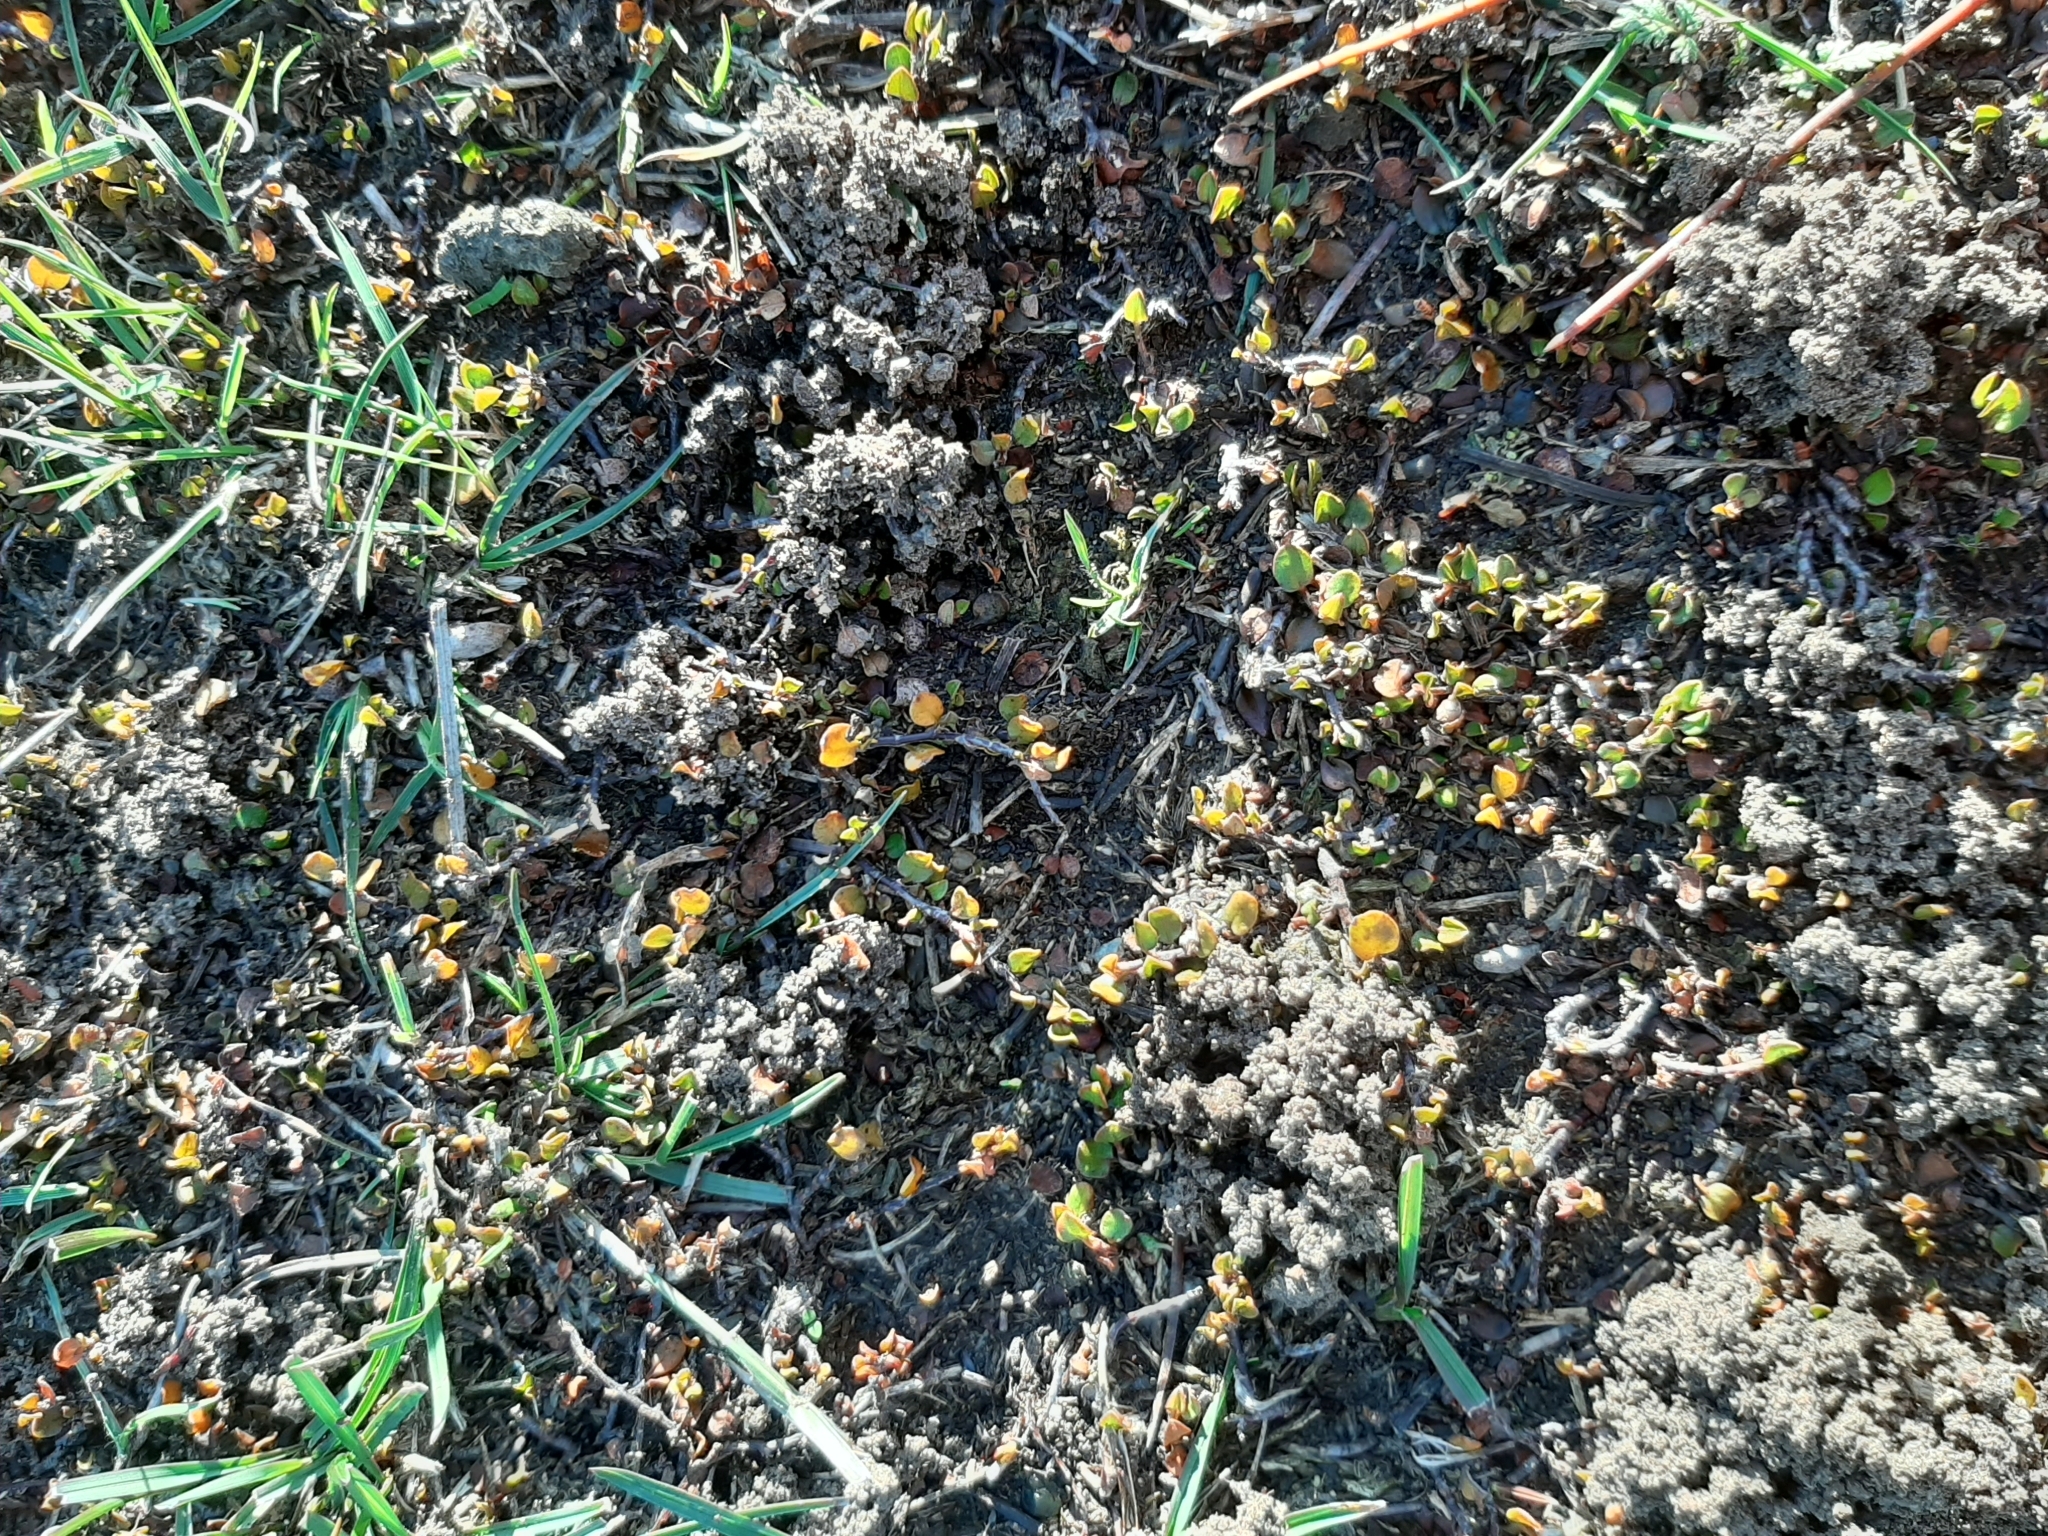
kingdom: Plantae
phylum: Tracheophyta
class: Magnoliopsida
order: Caryophyllales
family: Polygonaceae
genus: Muehlenbeckia
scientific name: Muehlenbeckia axillaris
